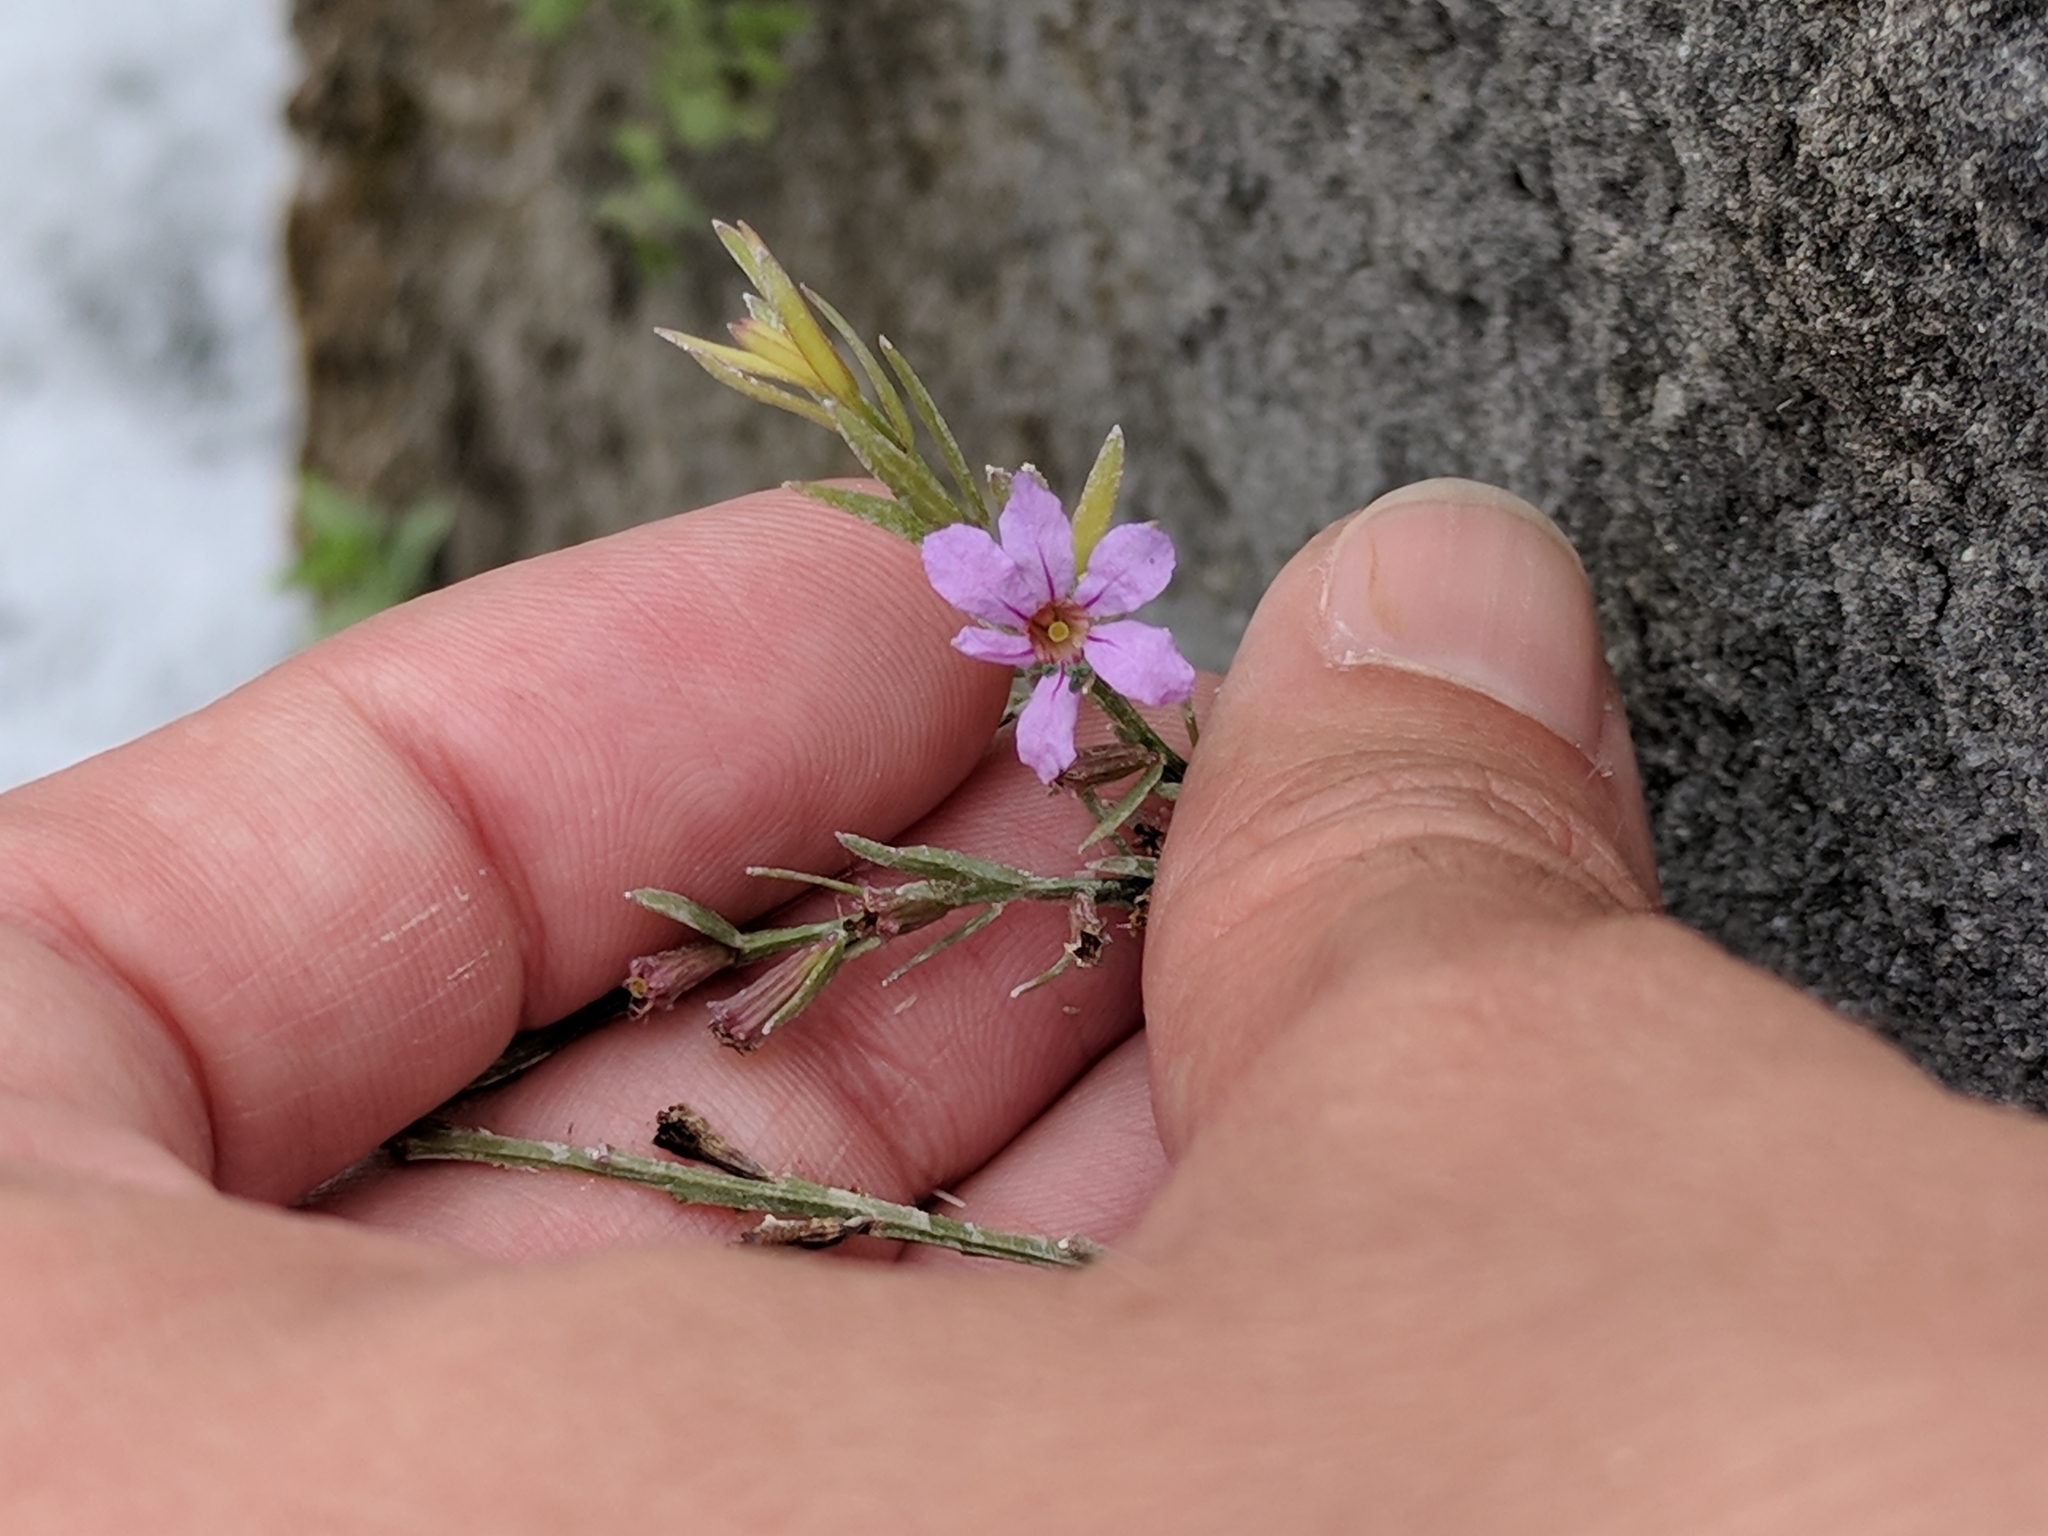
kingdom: Plantae
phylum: Tracheophyta
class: Magnoliopsida
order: Myrtales
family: Lythraceae
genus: Lythrum
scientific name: Lythrum californicum
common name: California loosestrife
